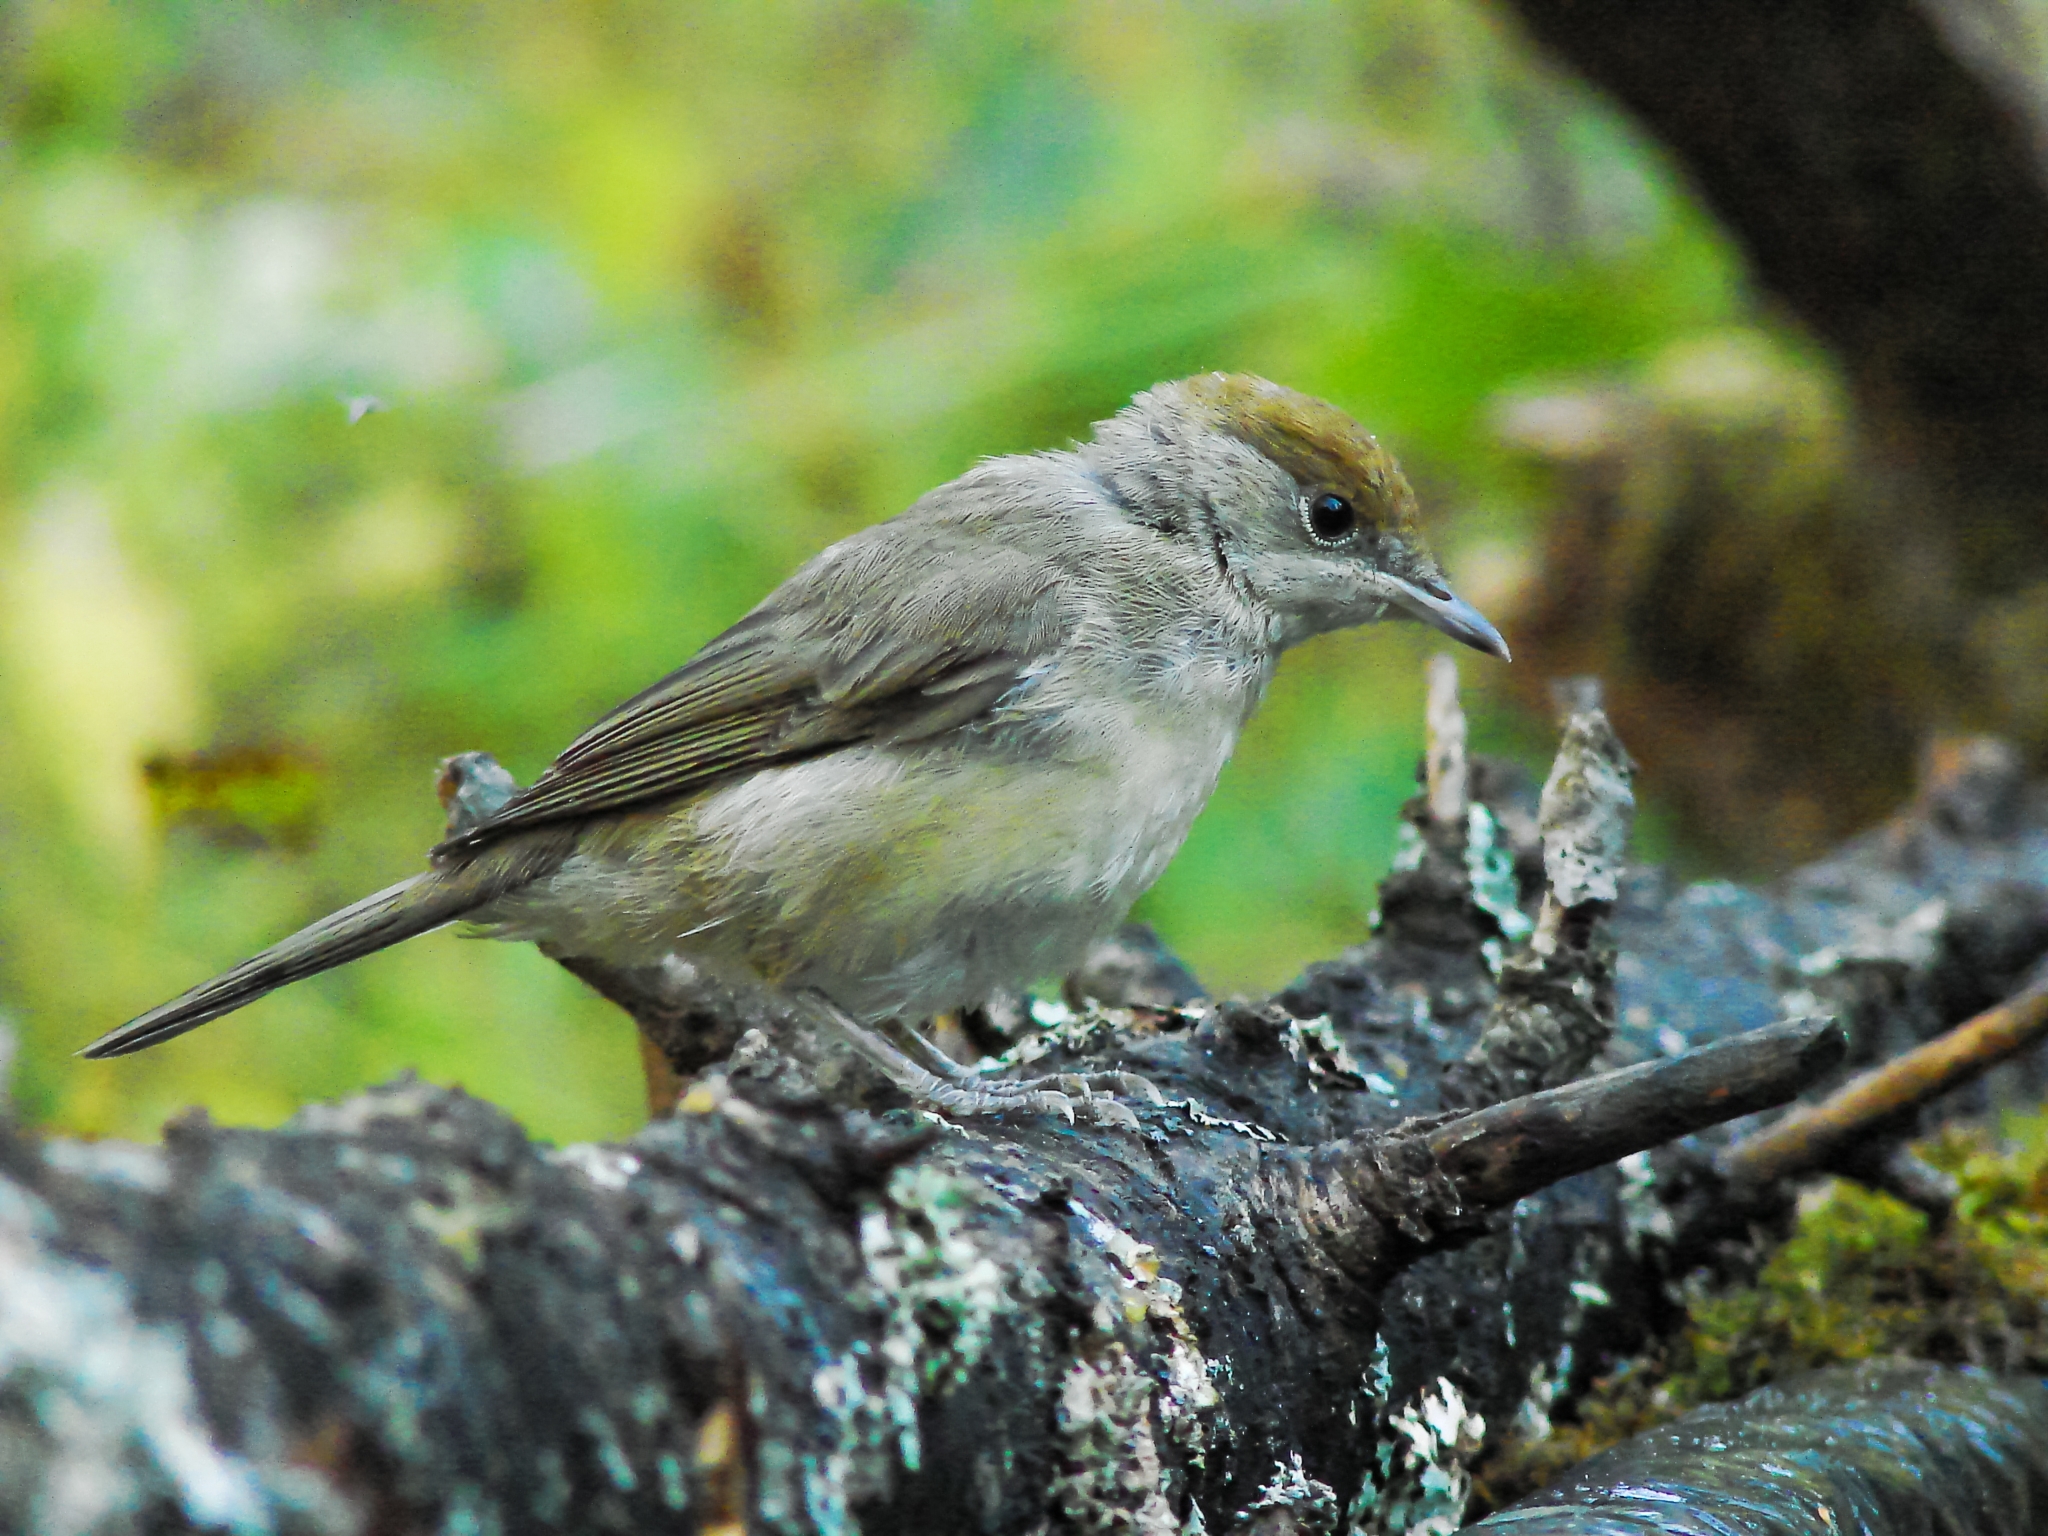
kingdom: Animalia
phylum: Chordata
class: Aves
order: Passeriformes
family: Sylviidae
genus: Sylvia
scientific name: Sylvia atricapilla
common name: Eurasian blackcap
